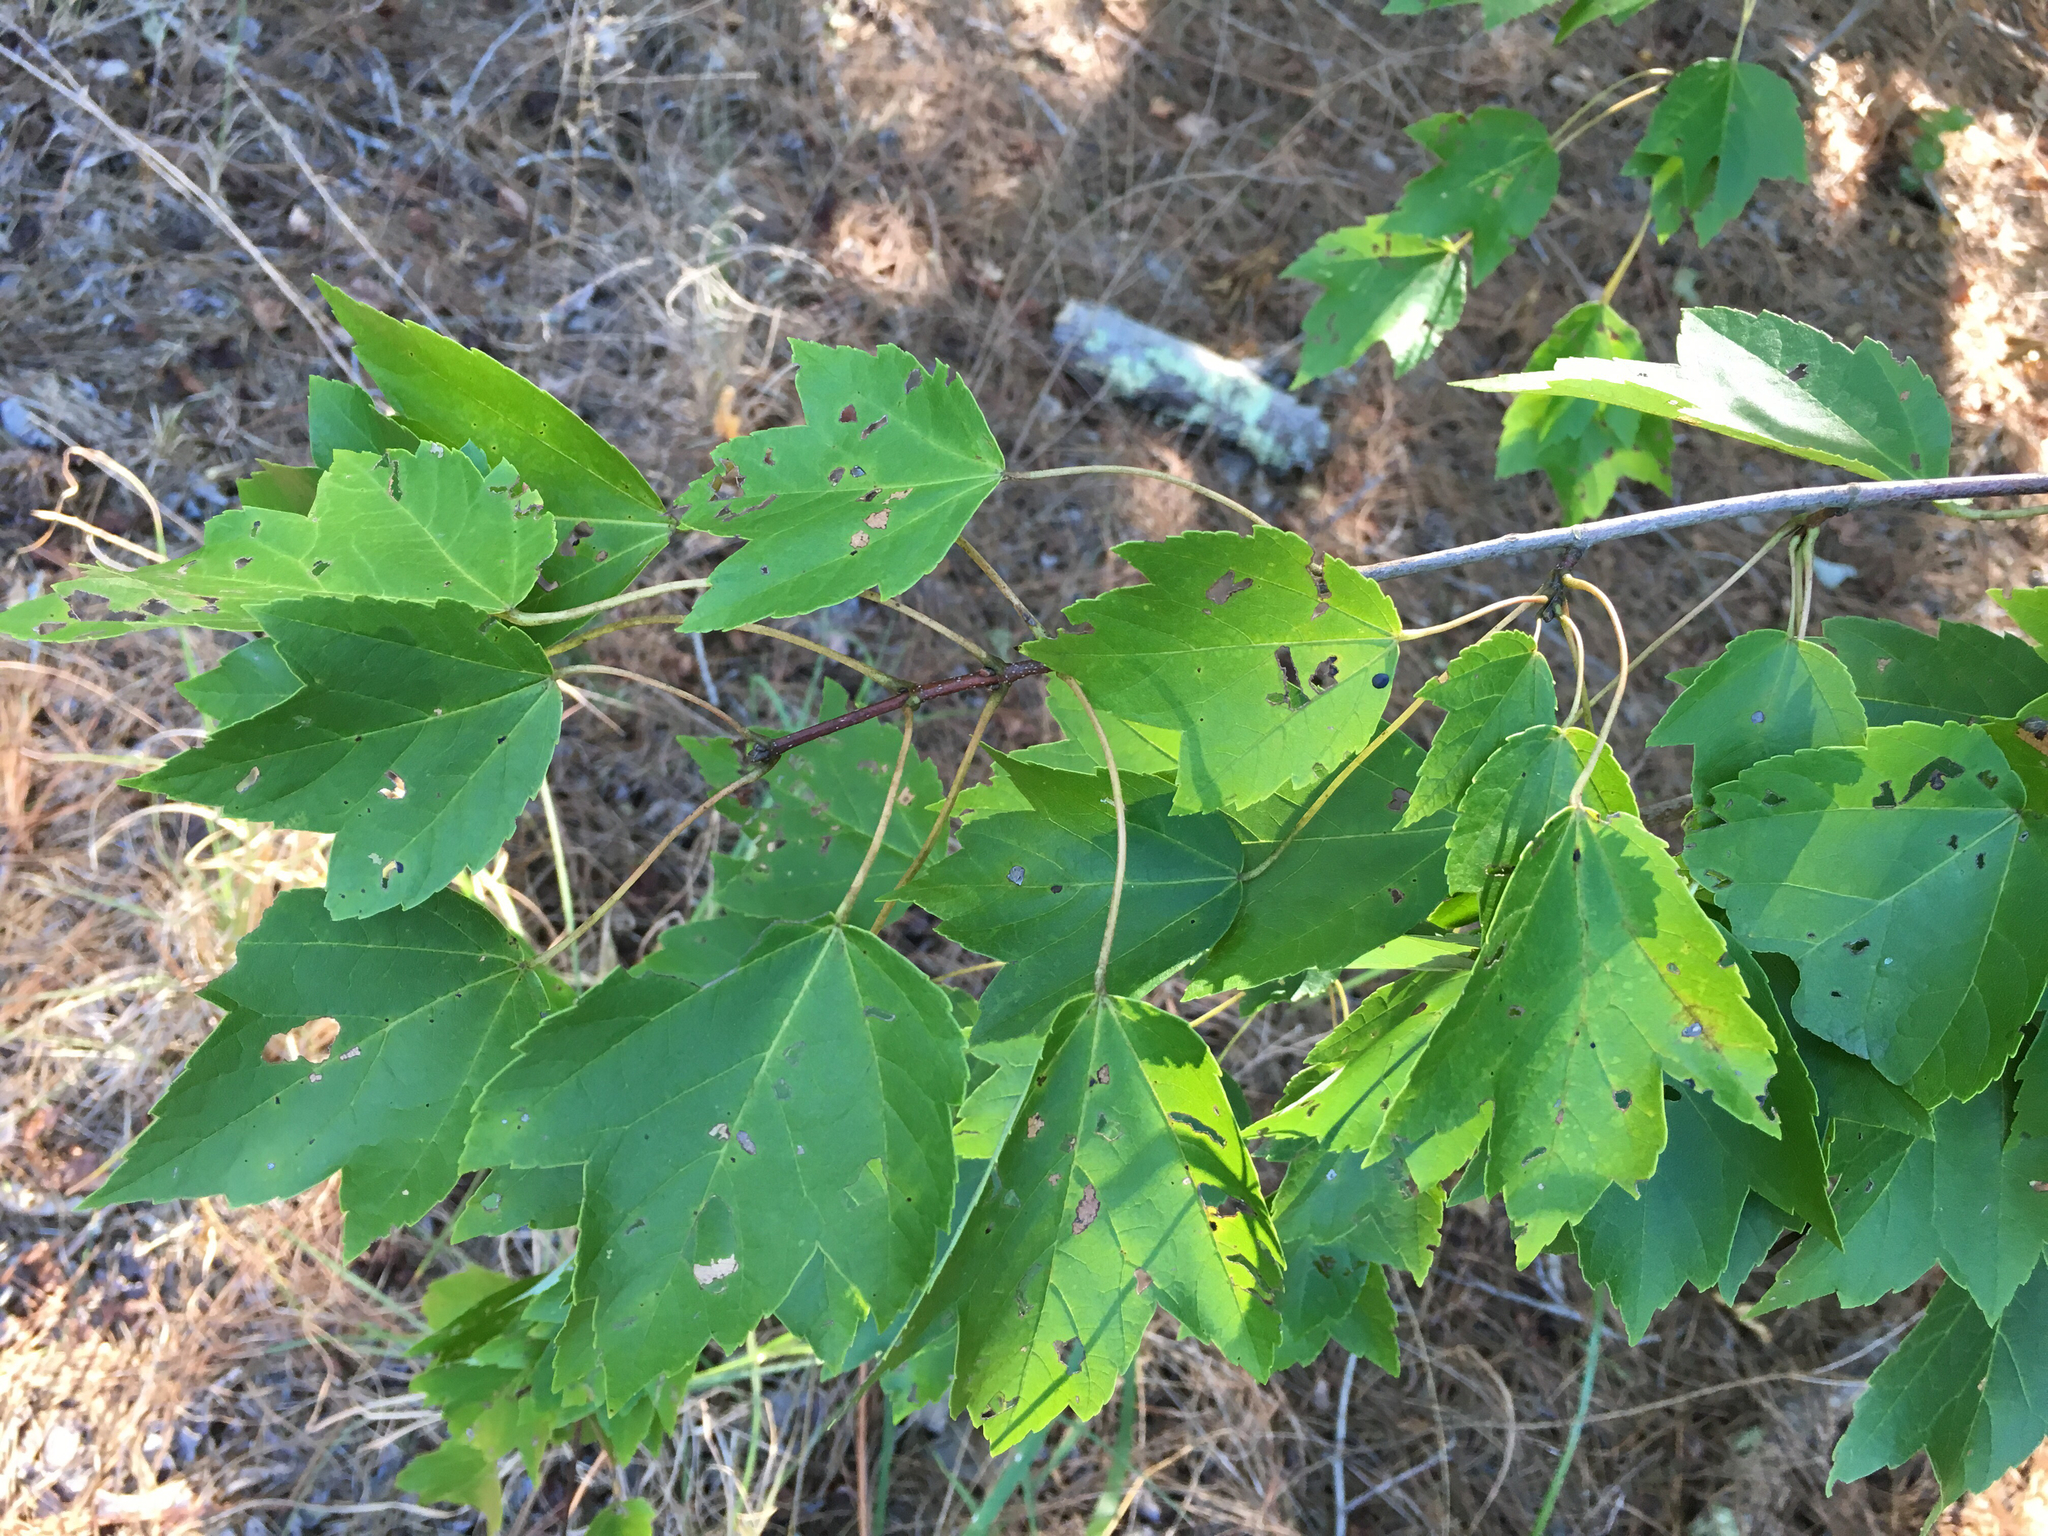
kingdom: Plantae
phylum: Tracheophyta
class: Magnoliopsida
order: Sapindales
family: Sapindaceae
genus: Acer
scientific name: Acer rubrum
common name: Red maple
